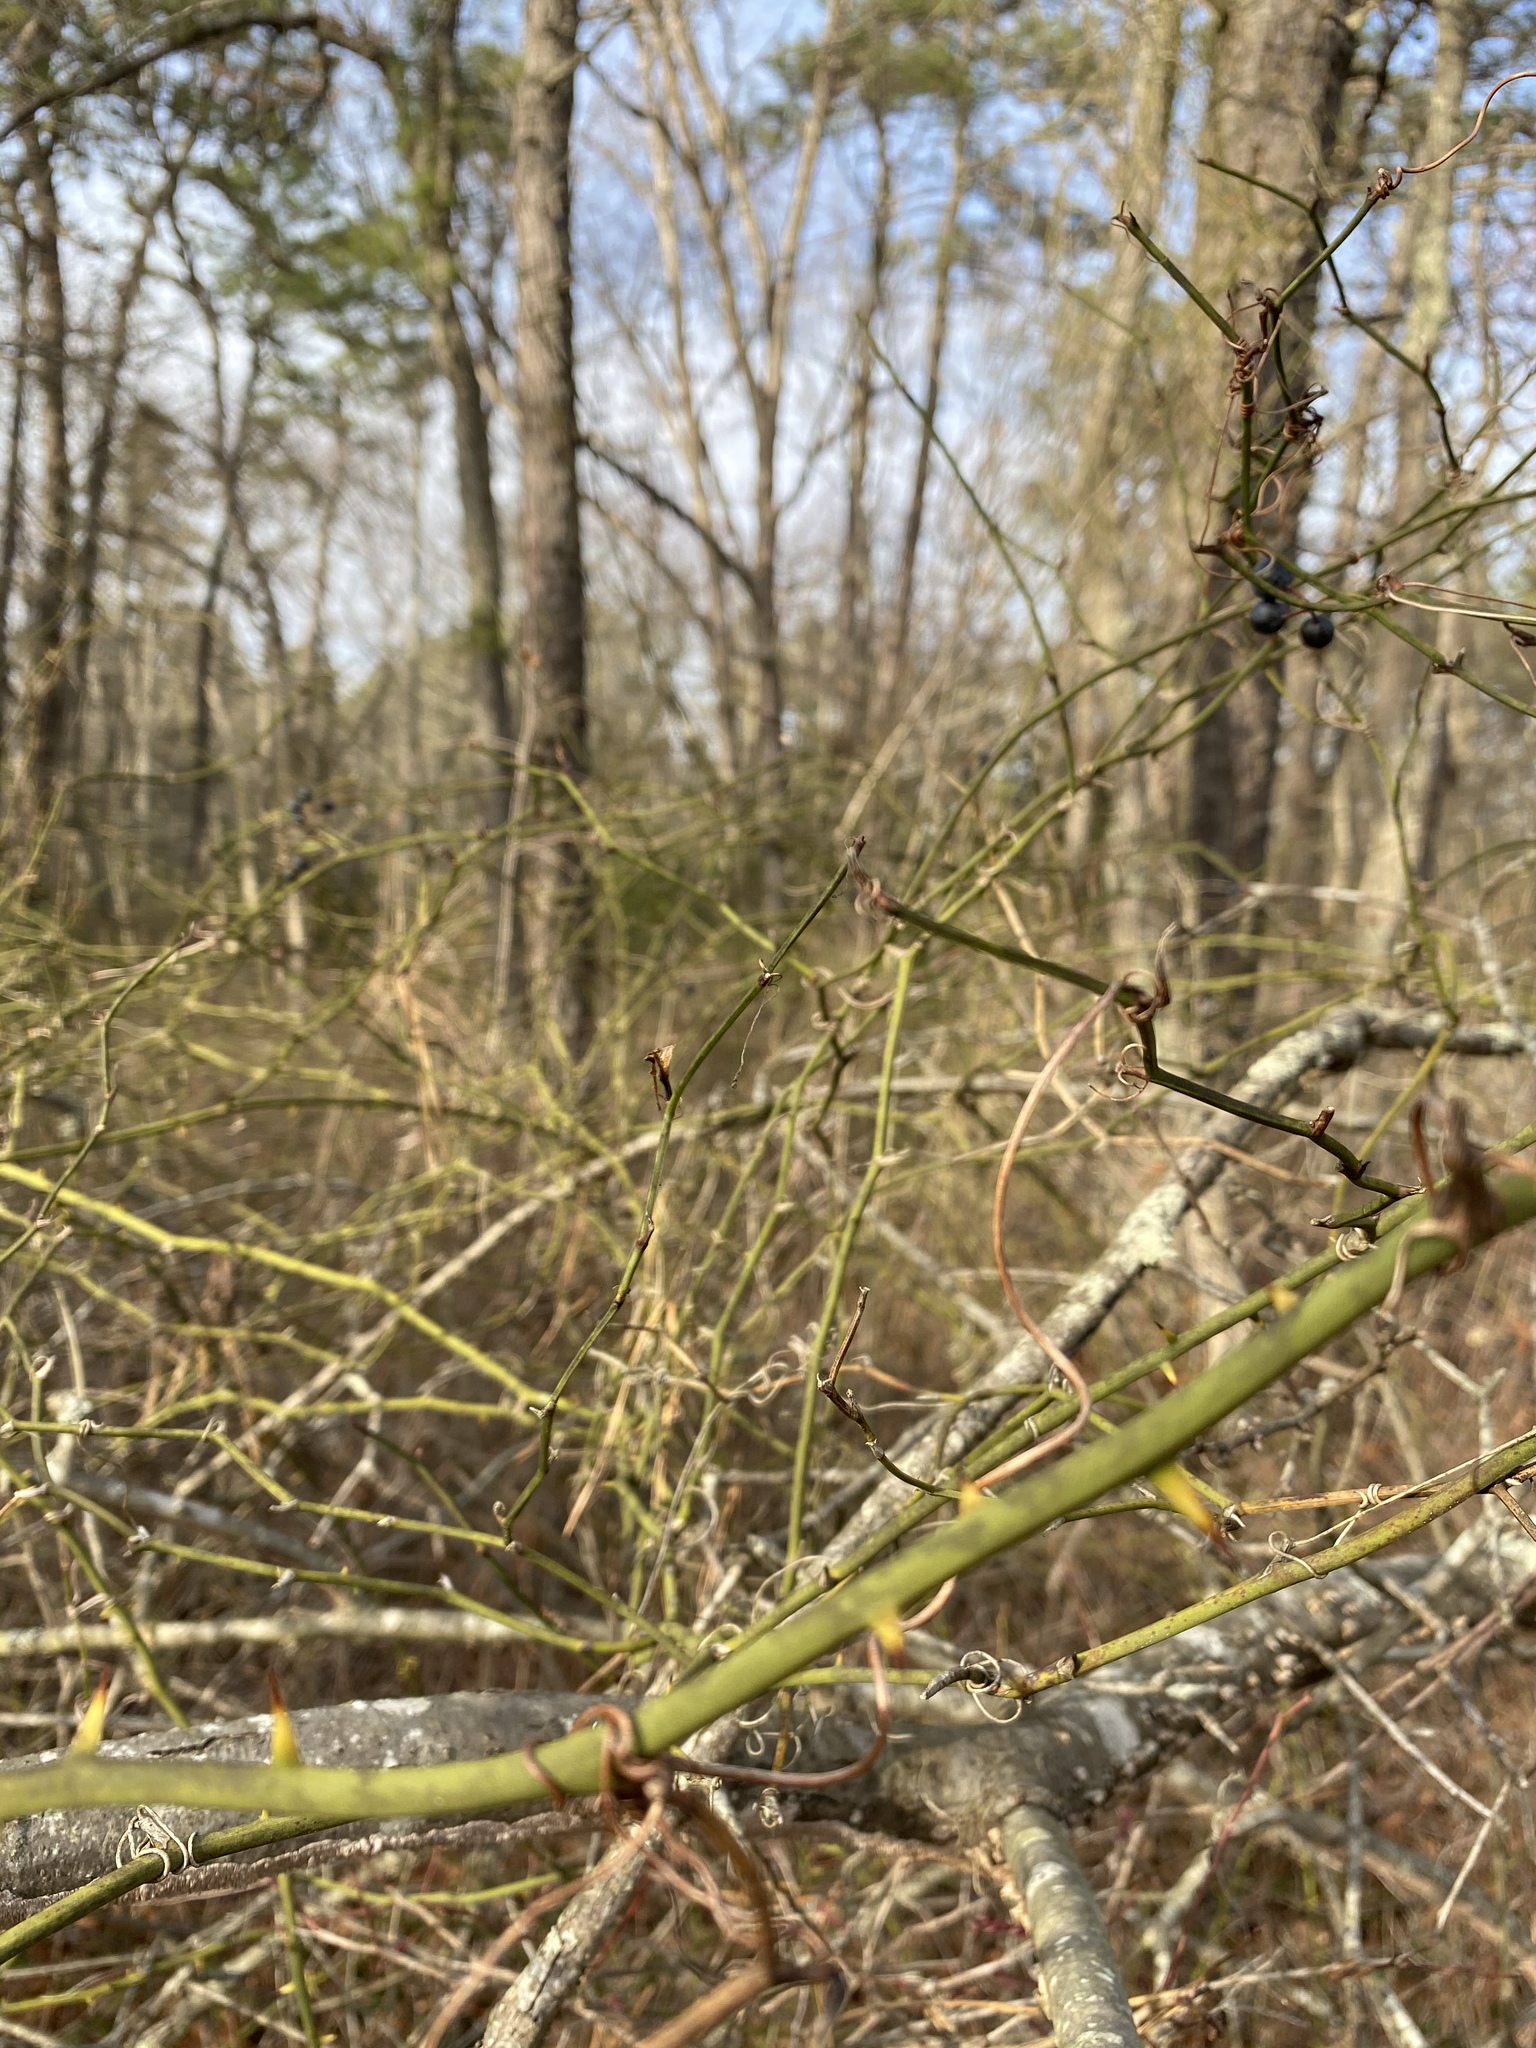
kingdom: Plantae
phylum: Tracheophyta
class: Liliopsida
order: Liliales
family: Smilacaceae
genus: Smilax
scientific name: Smilax rotundifolia
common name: Bullbriar
